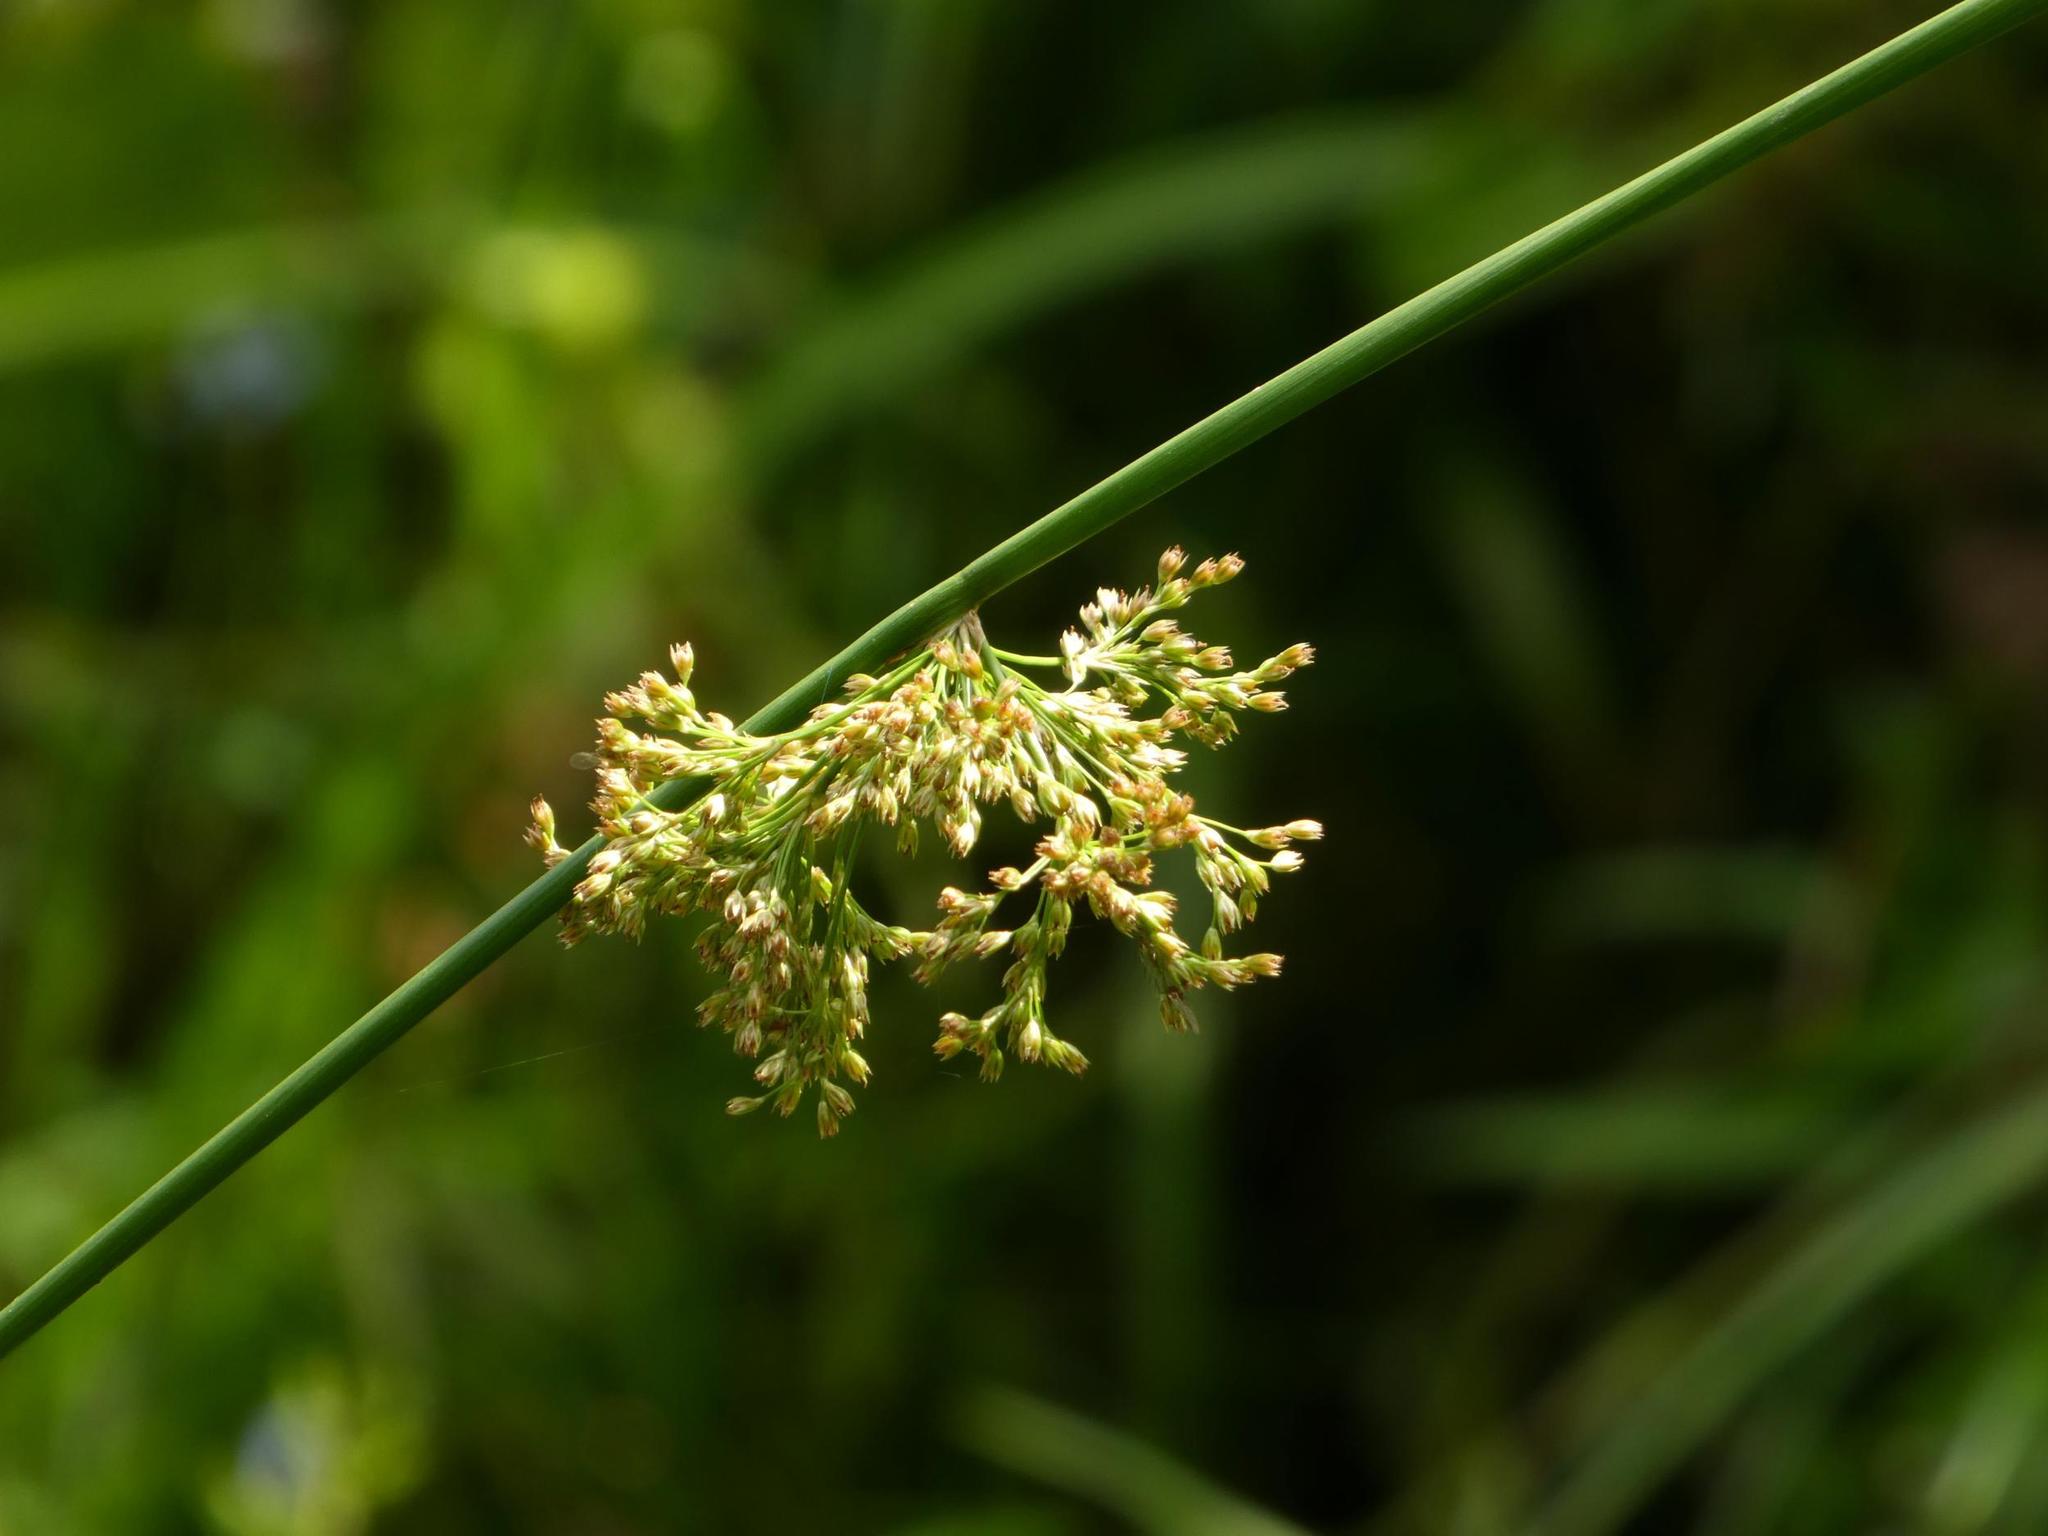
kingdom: Plantae
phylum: Tracheophyta
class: Liliopsida
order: Poales
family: Juncaceae
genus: Juncus
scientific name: Juncus effusus
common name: Soft rush
